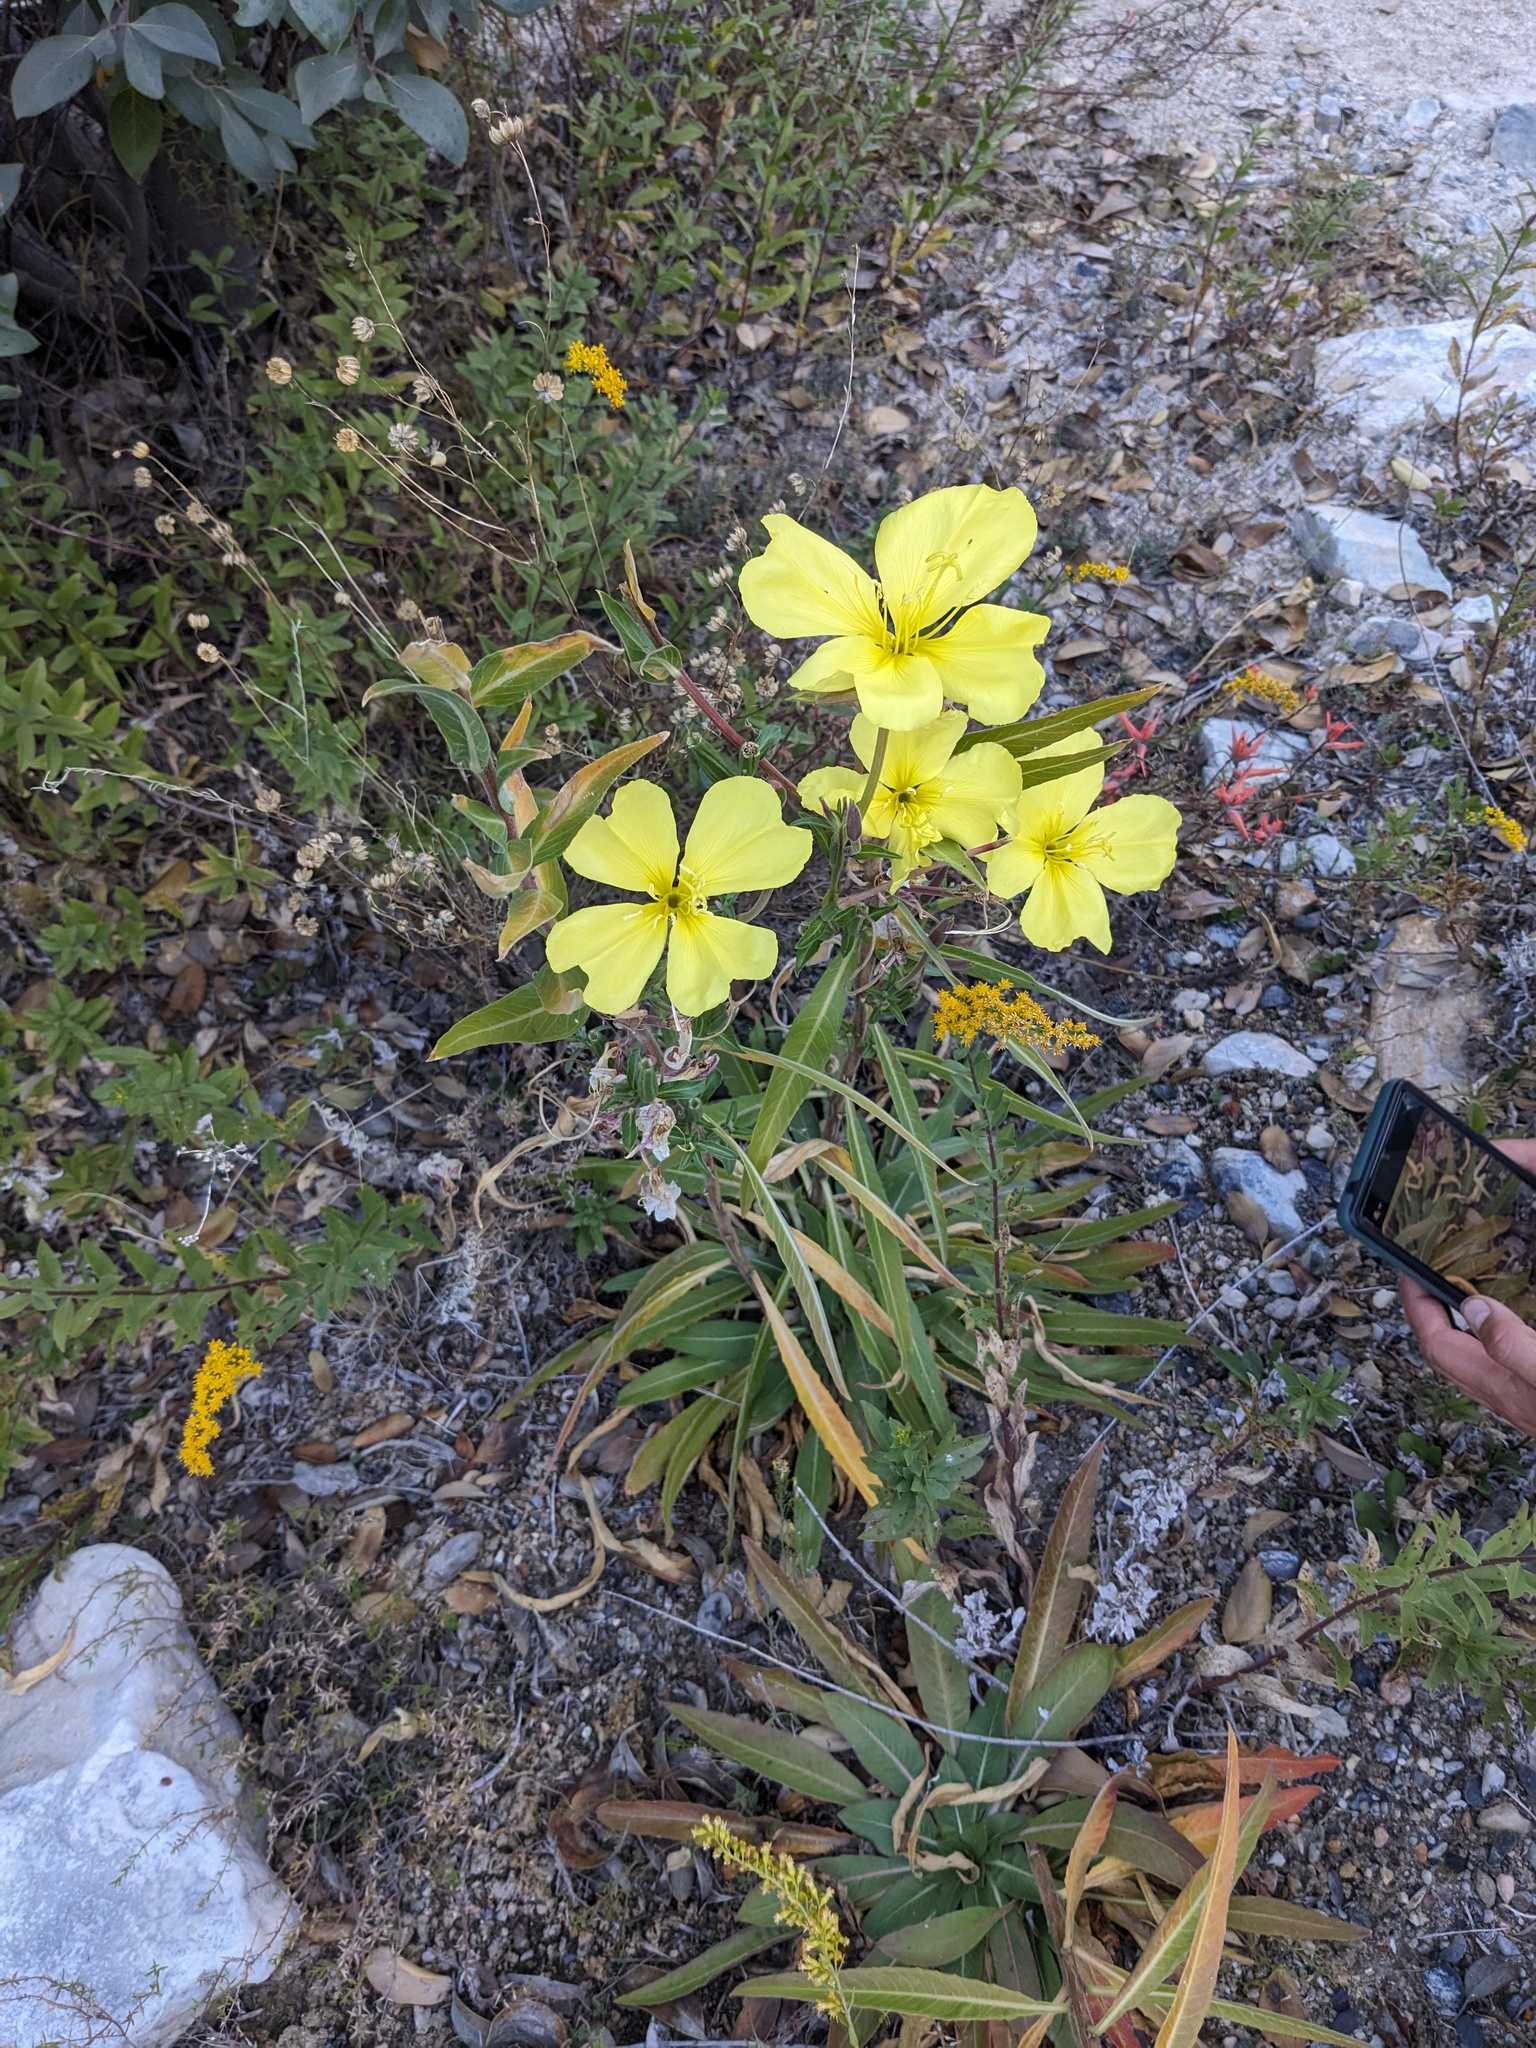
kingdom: Plantae
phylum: Tracheophyta
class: Magnoliopsida
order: Myrtales
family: Onagraceae
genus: Oenothera
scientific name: Oenothera longissima
